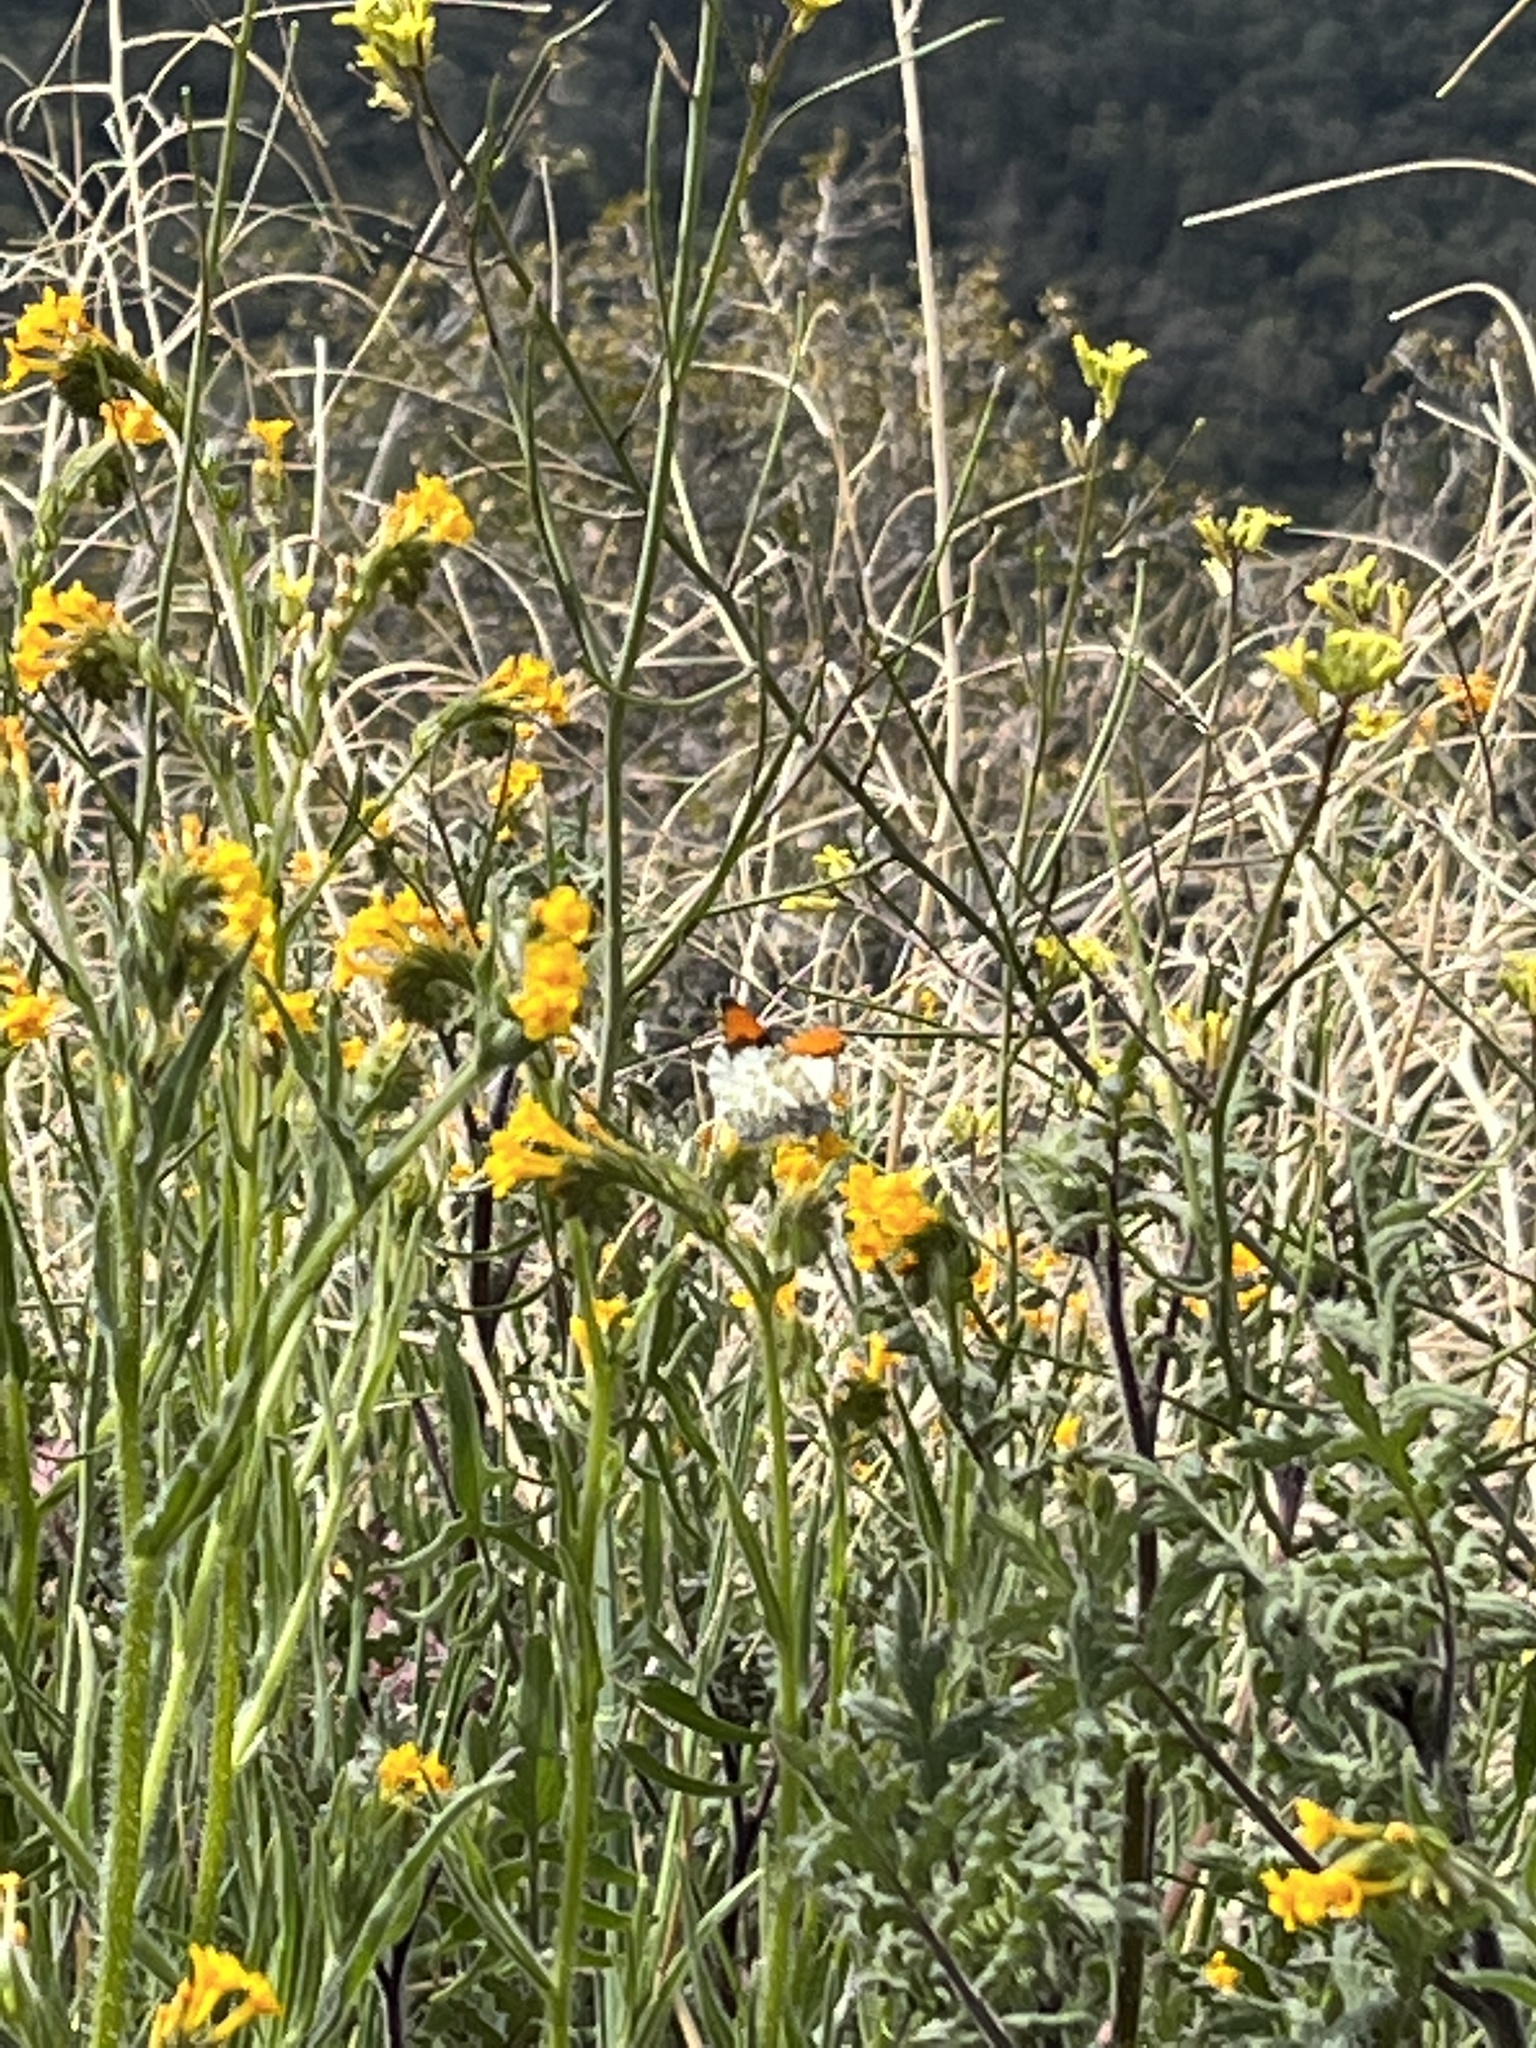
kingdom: Animalia
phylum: Arthropoda
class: Insecta
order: Lepidoptera
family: Pieridae
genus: Anthocharis
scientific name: Anthocharis sara
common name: Sara's orangetip
